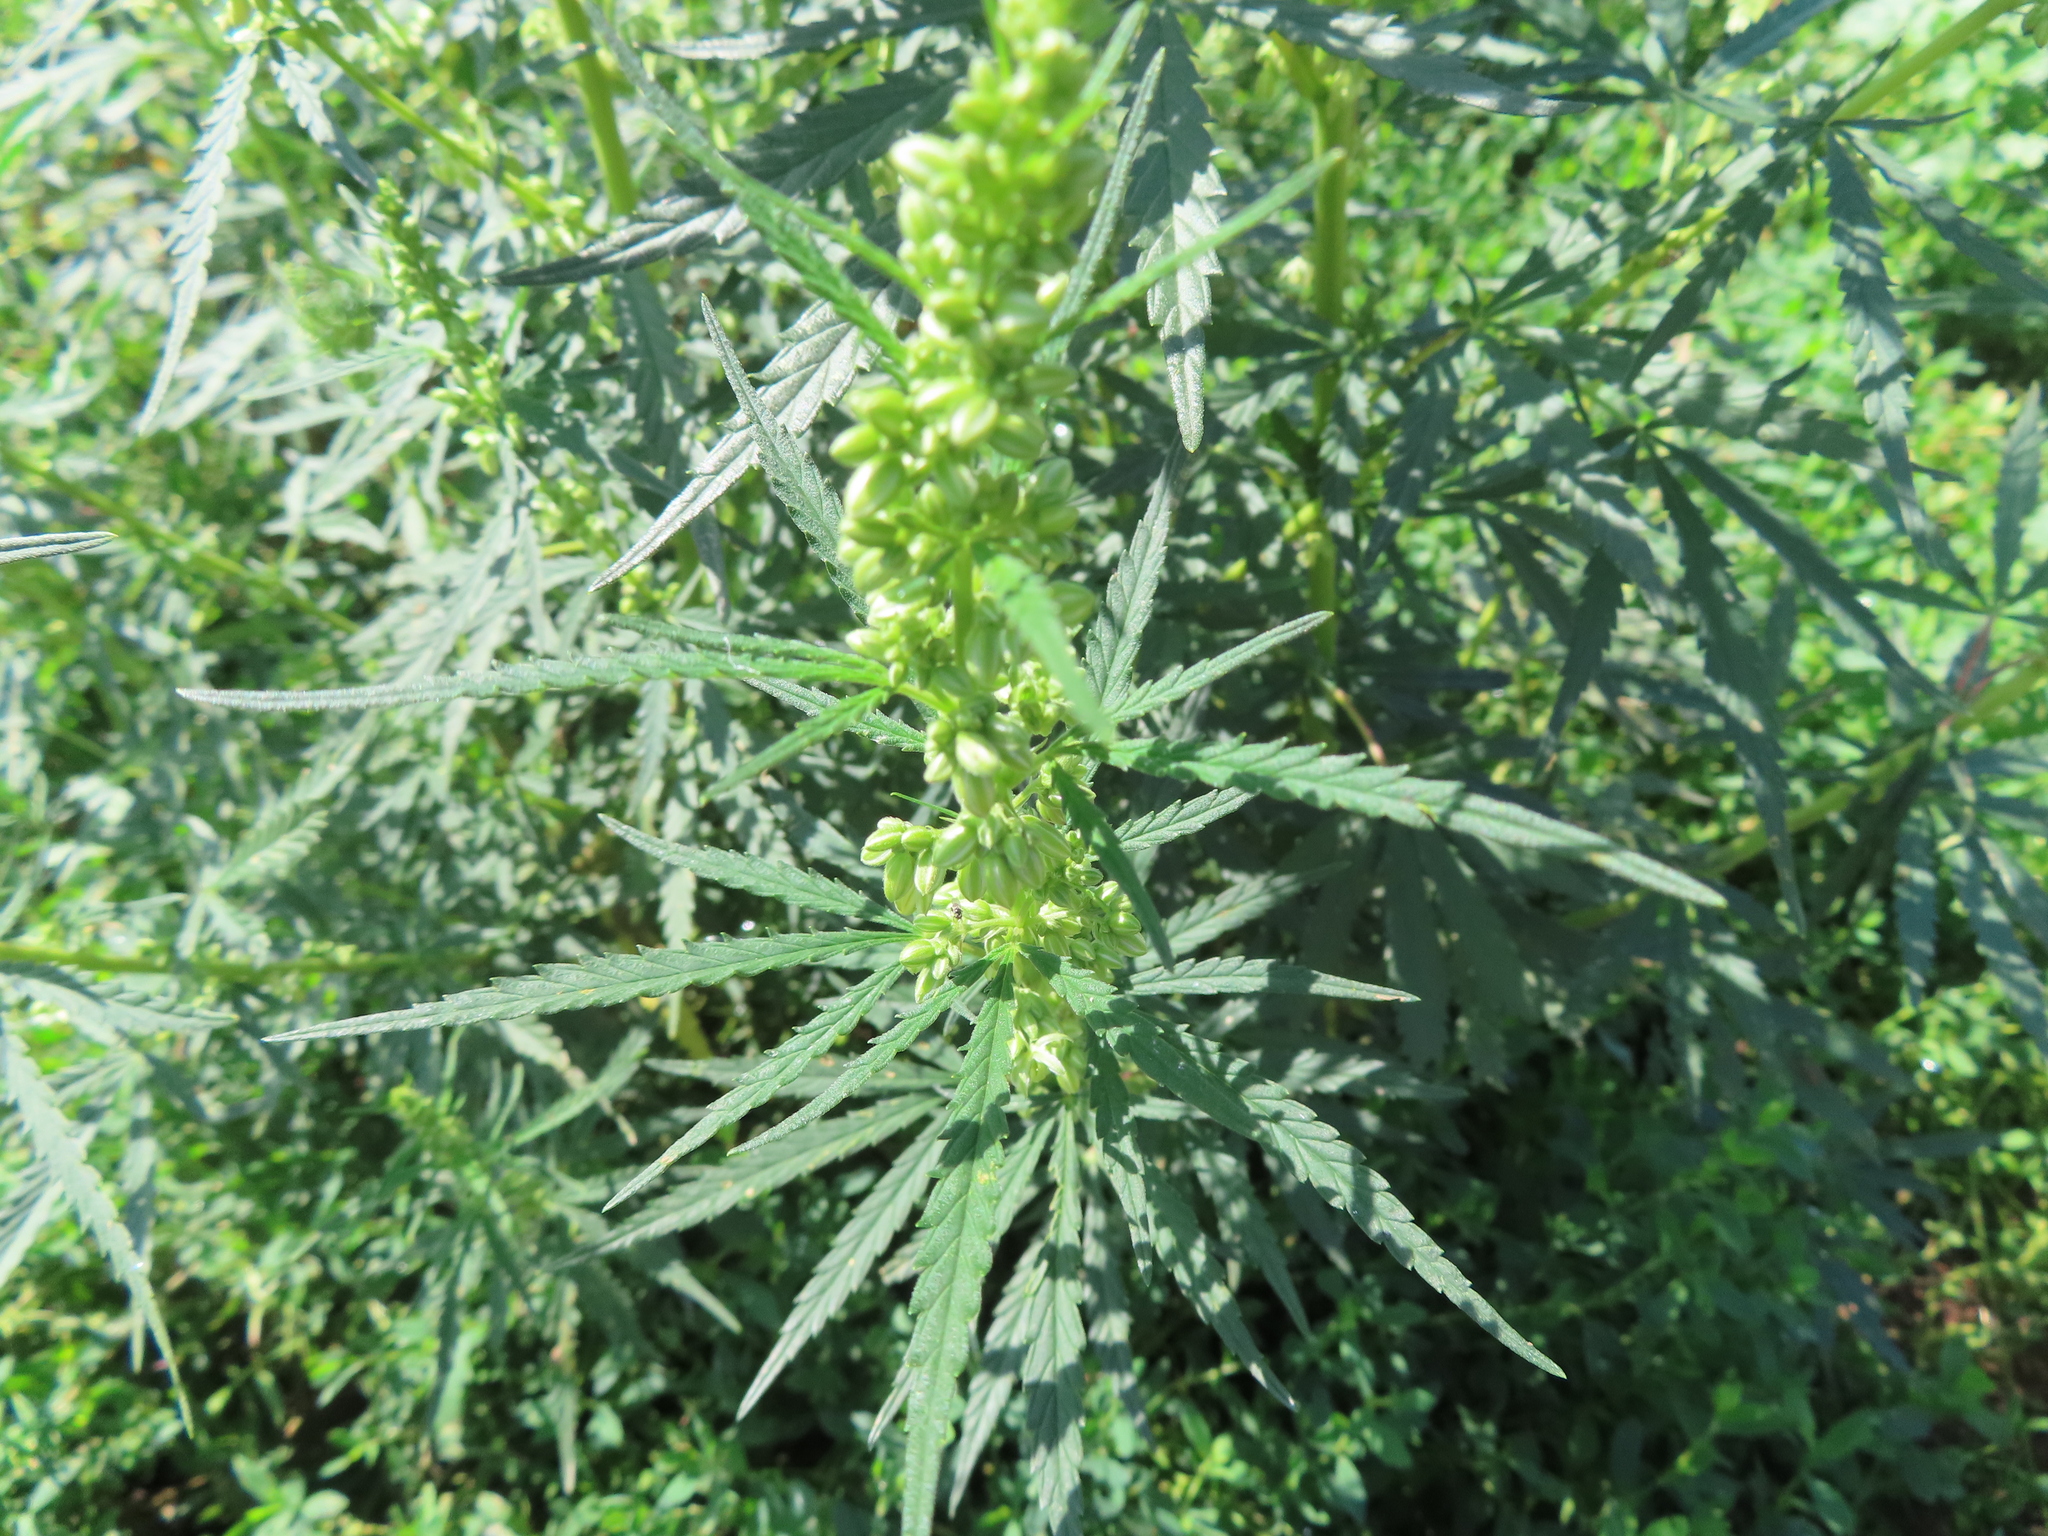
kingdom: Plantae
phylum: Tracheophyta
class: Magnoliopsida
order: Rosales
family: Cannabaceae
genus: Cannabis
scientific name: Cannabis sativa
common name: Hemp
